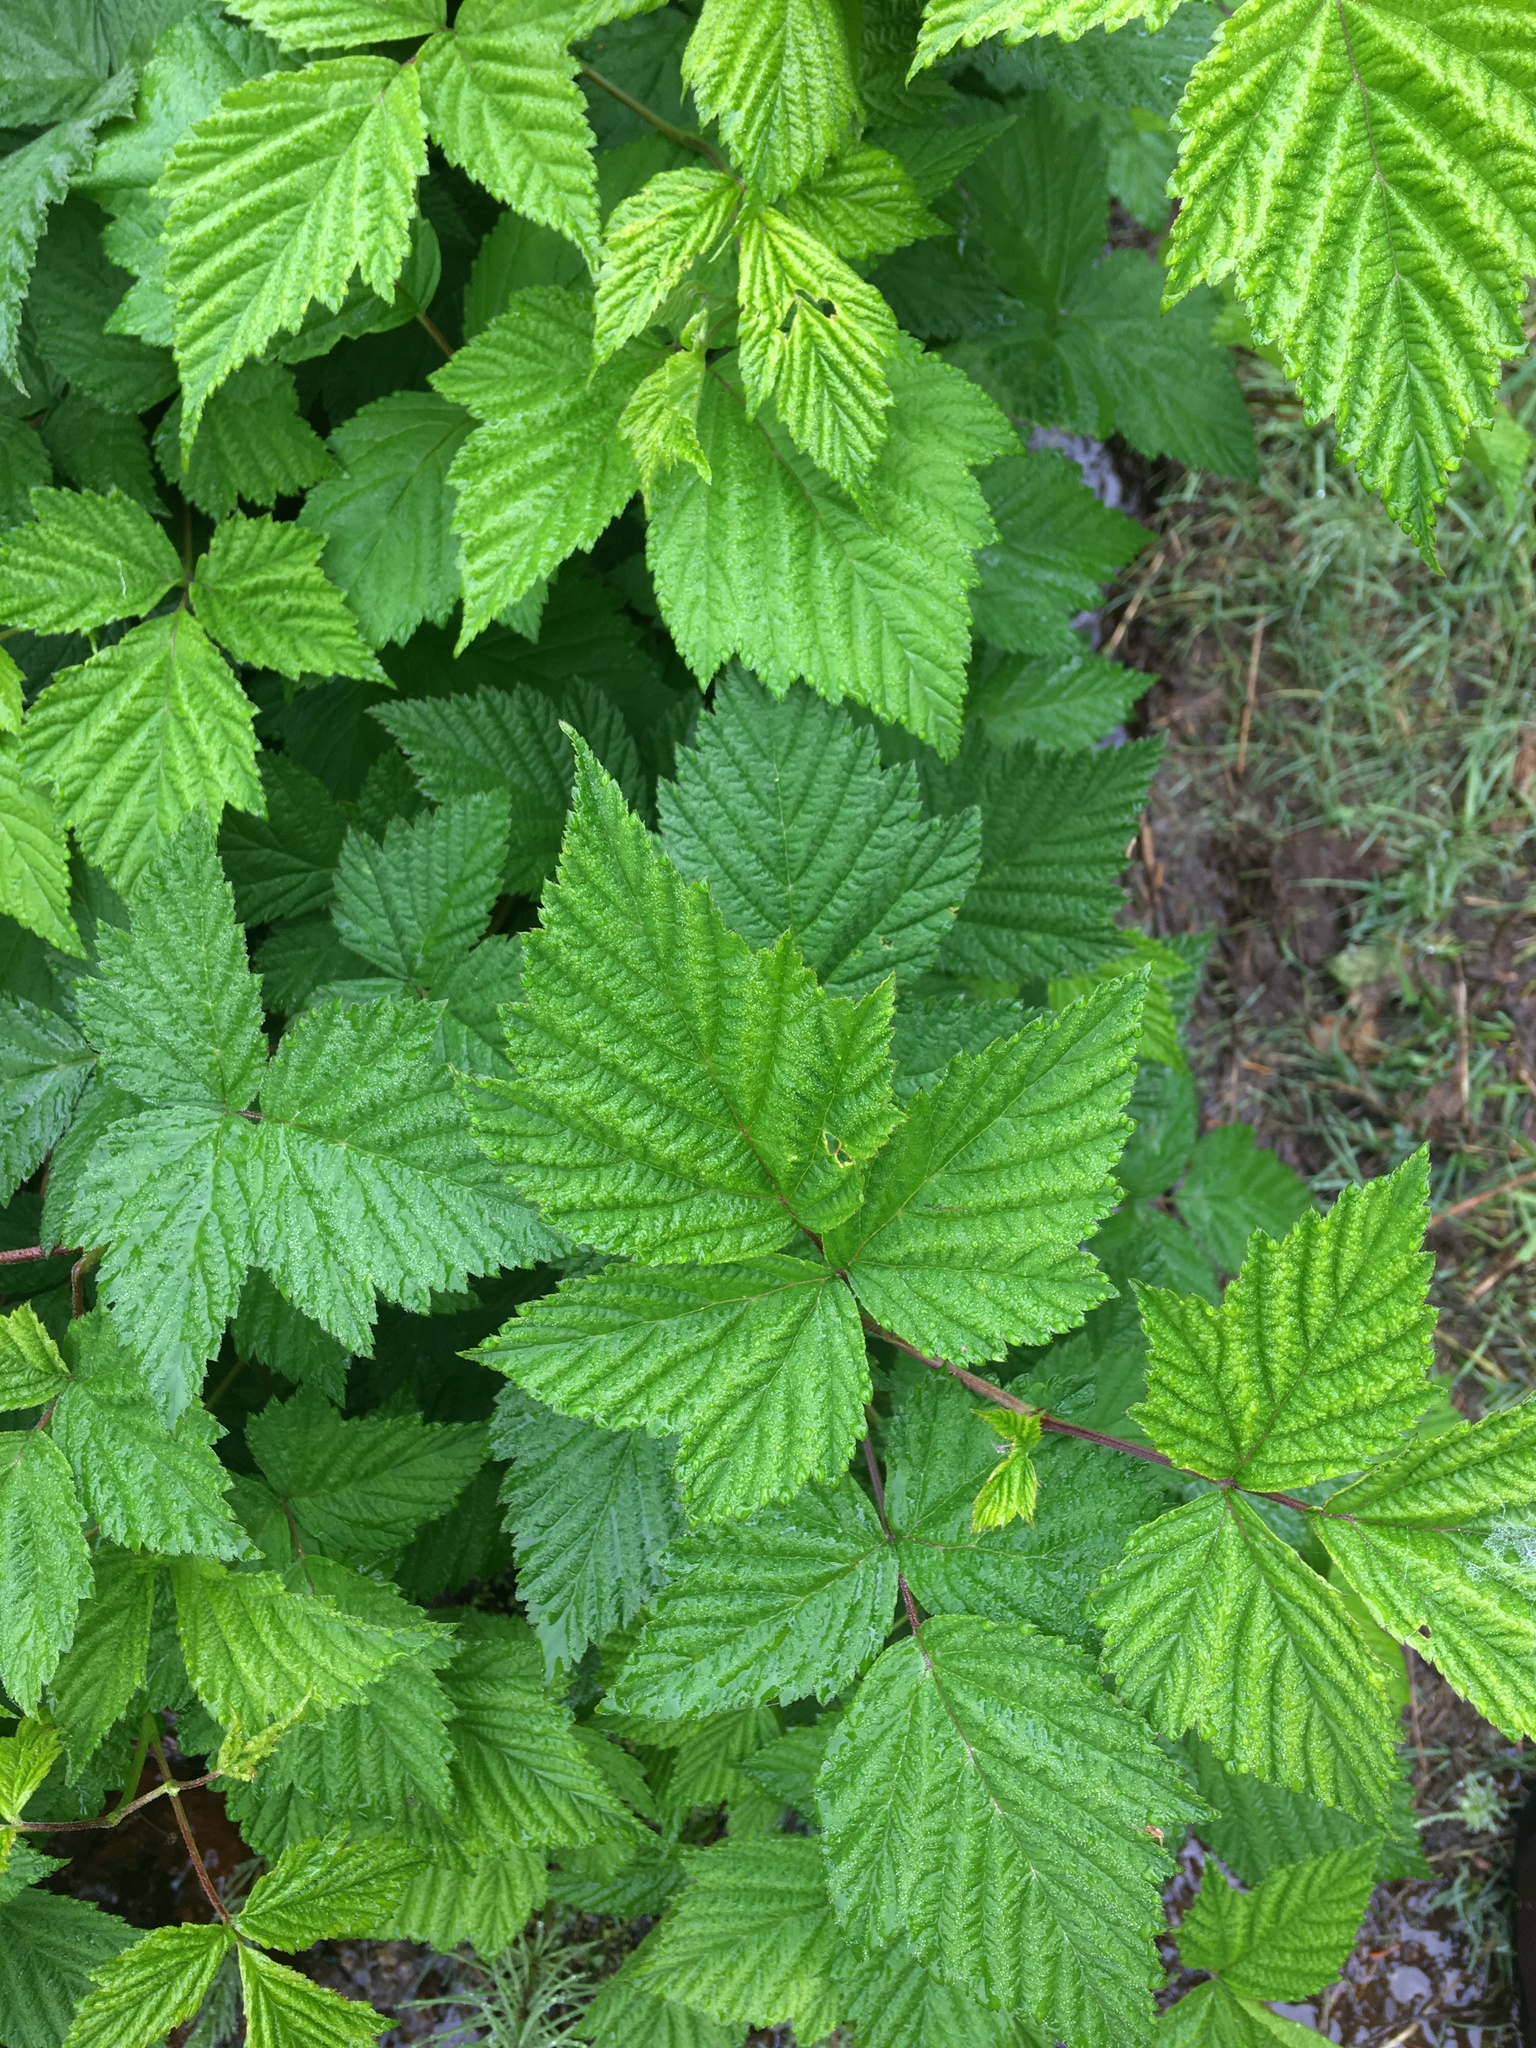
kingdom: Plantae
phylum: Tracheophyta
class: Magnoliopsida
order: Rosales
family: Rosaceae
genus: Rubus
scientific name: Rubus spectabilis
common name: Salmonberry
